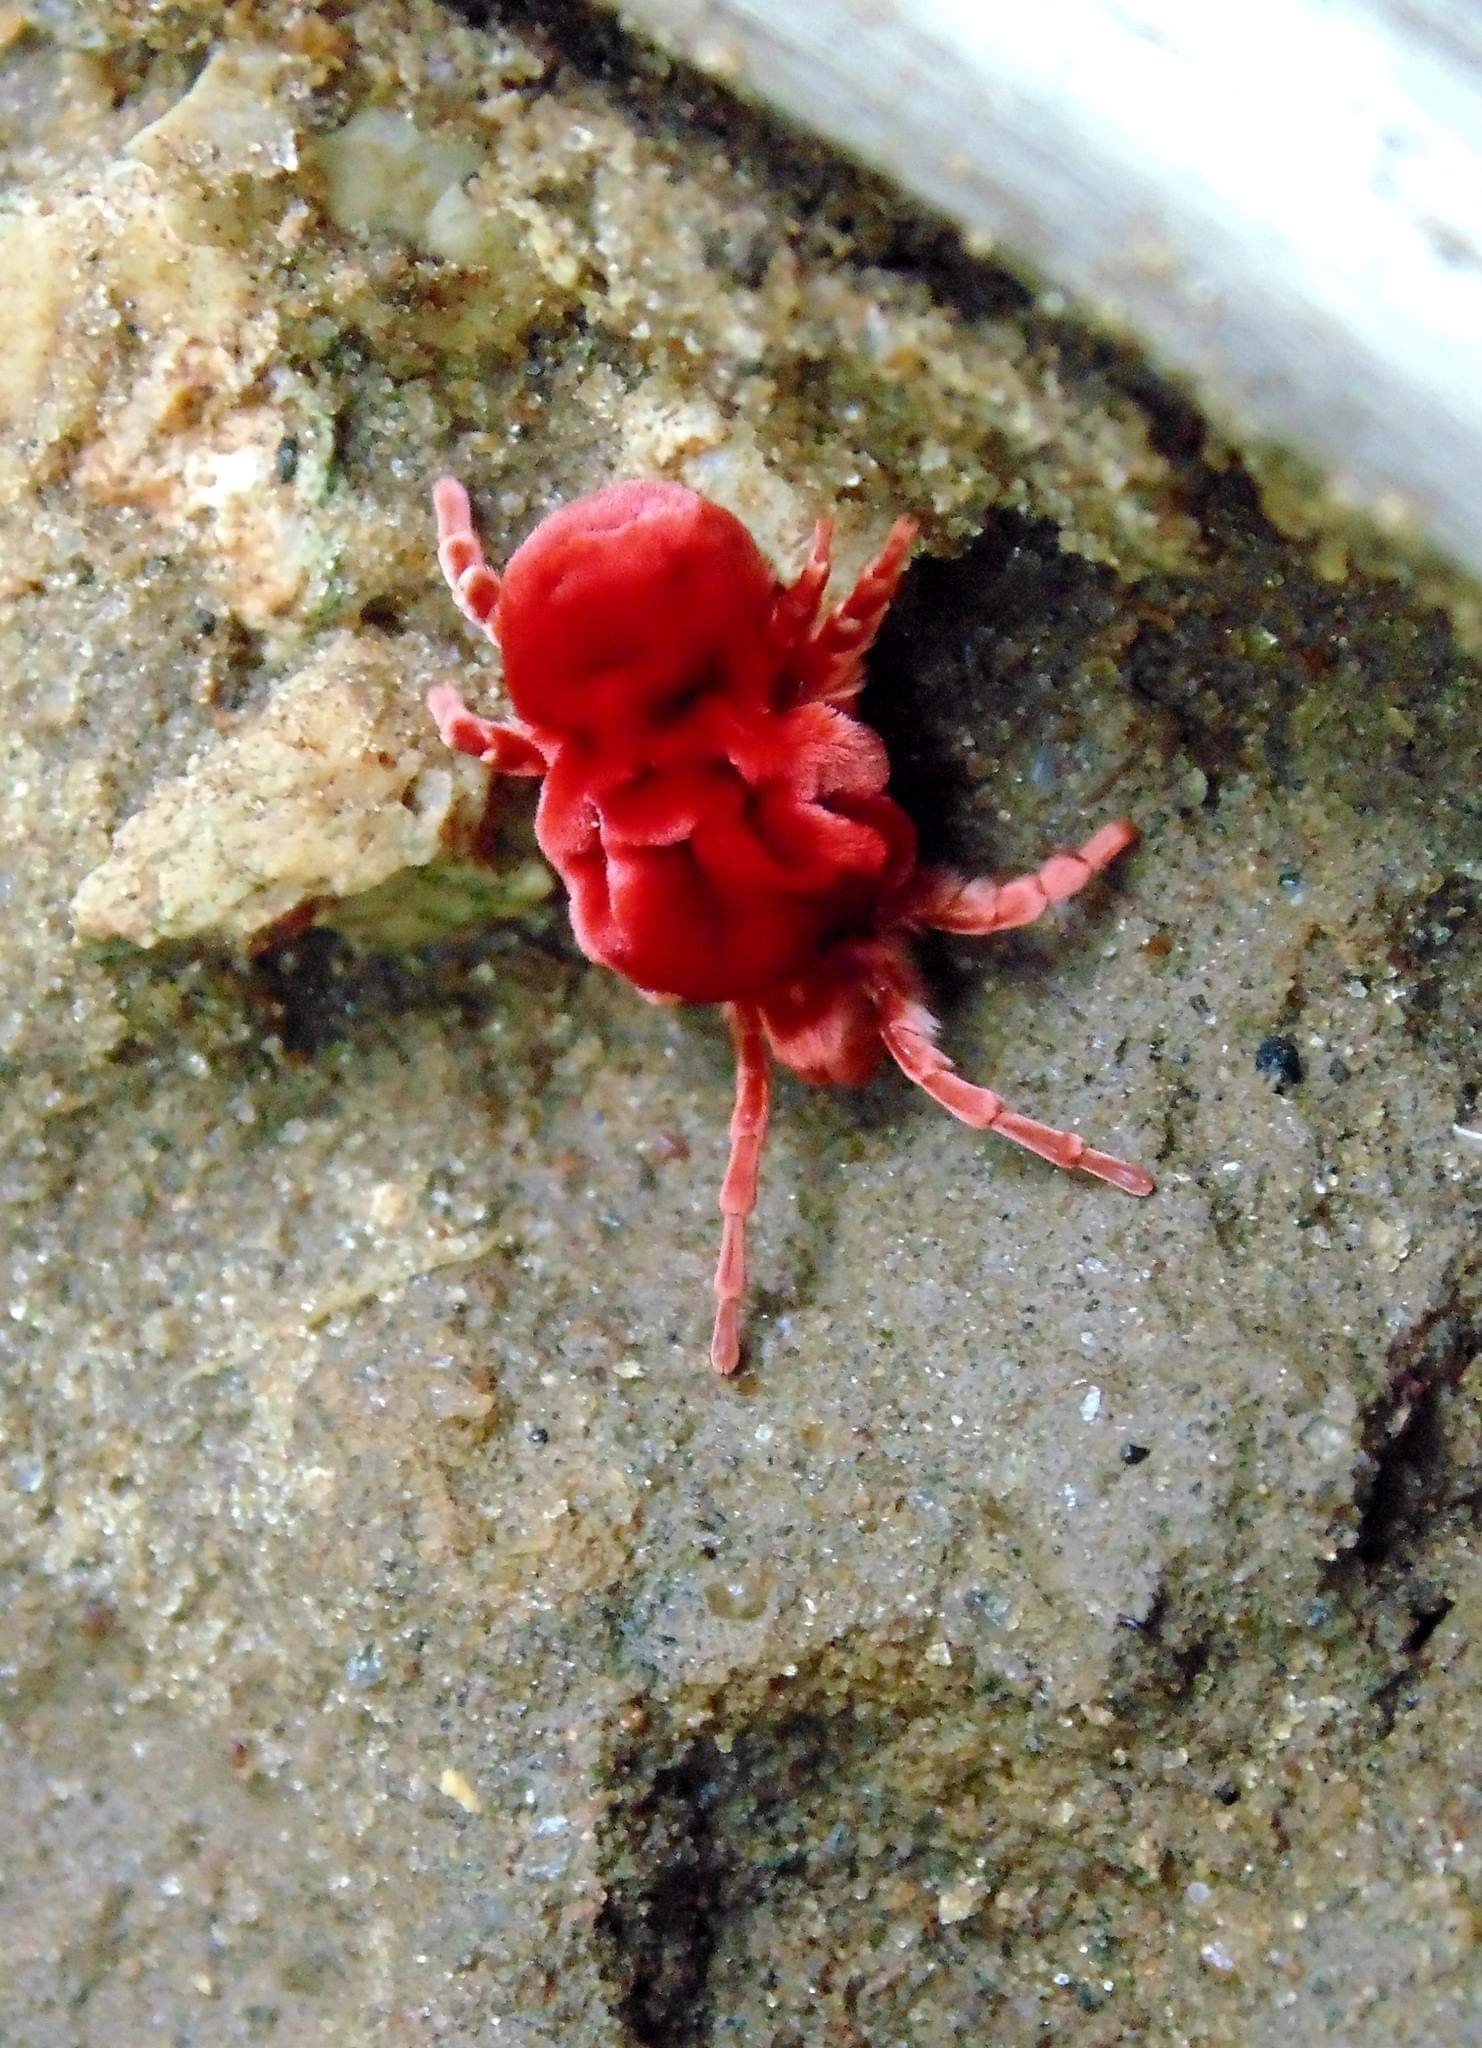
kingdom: Animalia
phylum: Arthropoda
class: Arachnida
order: Trombidiformes
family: Leeuwenhoekiidae
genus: Dinothrombium
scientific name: Dinothrombium
